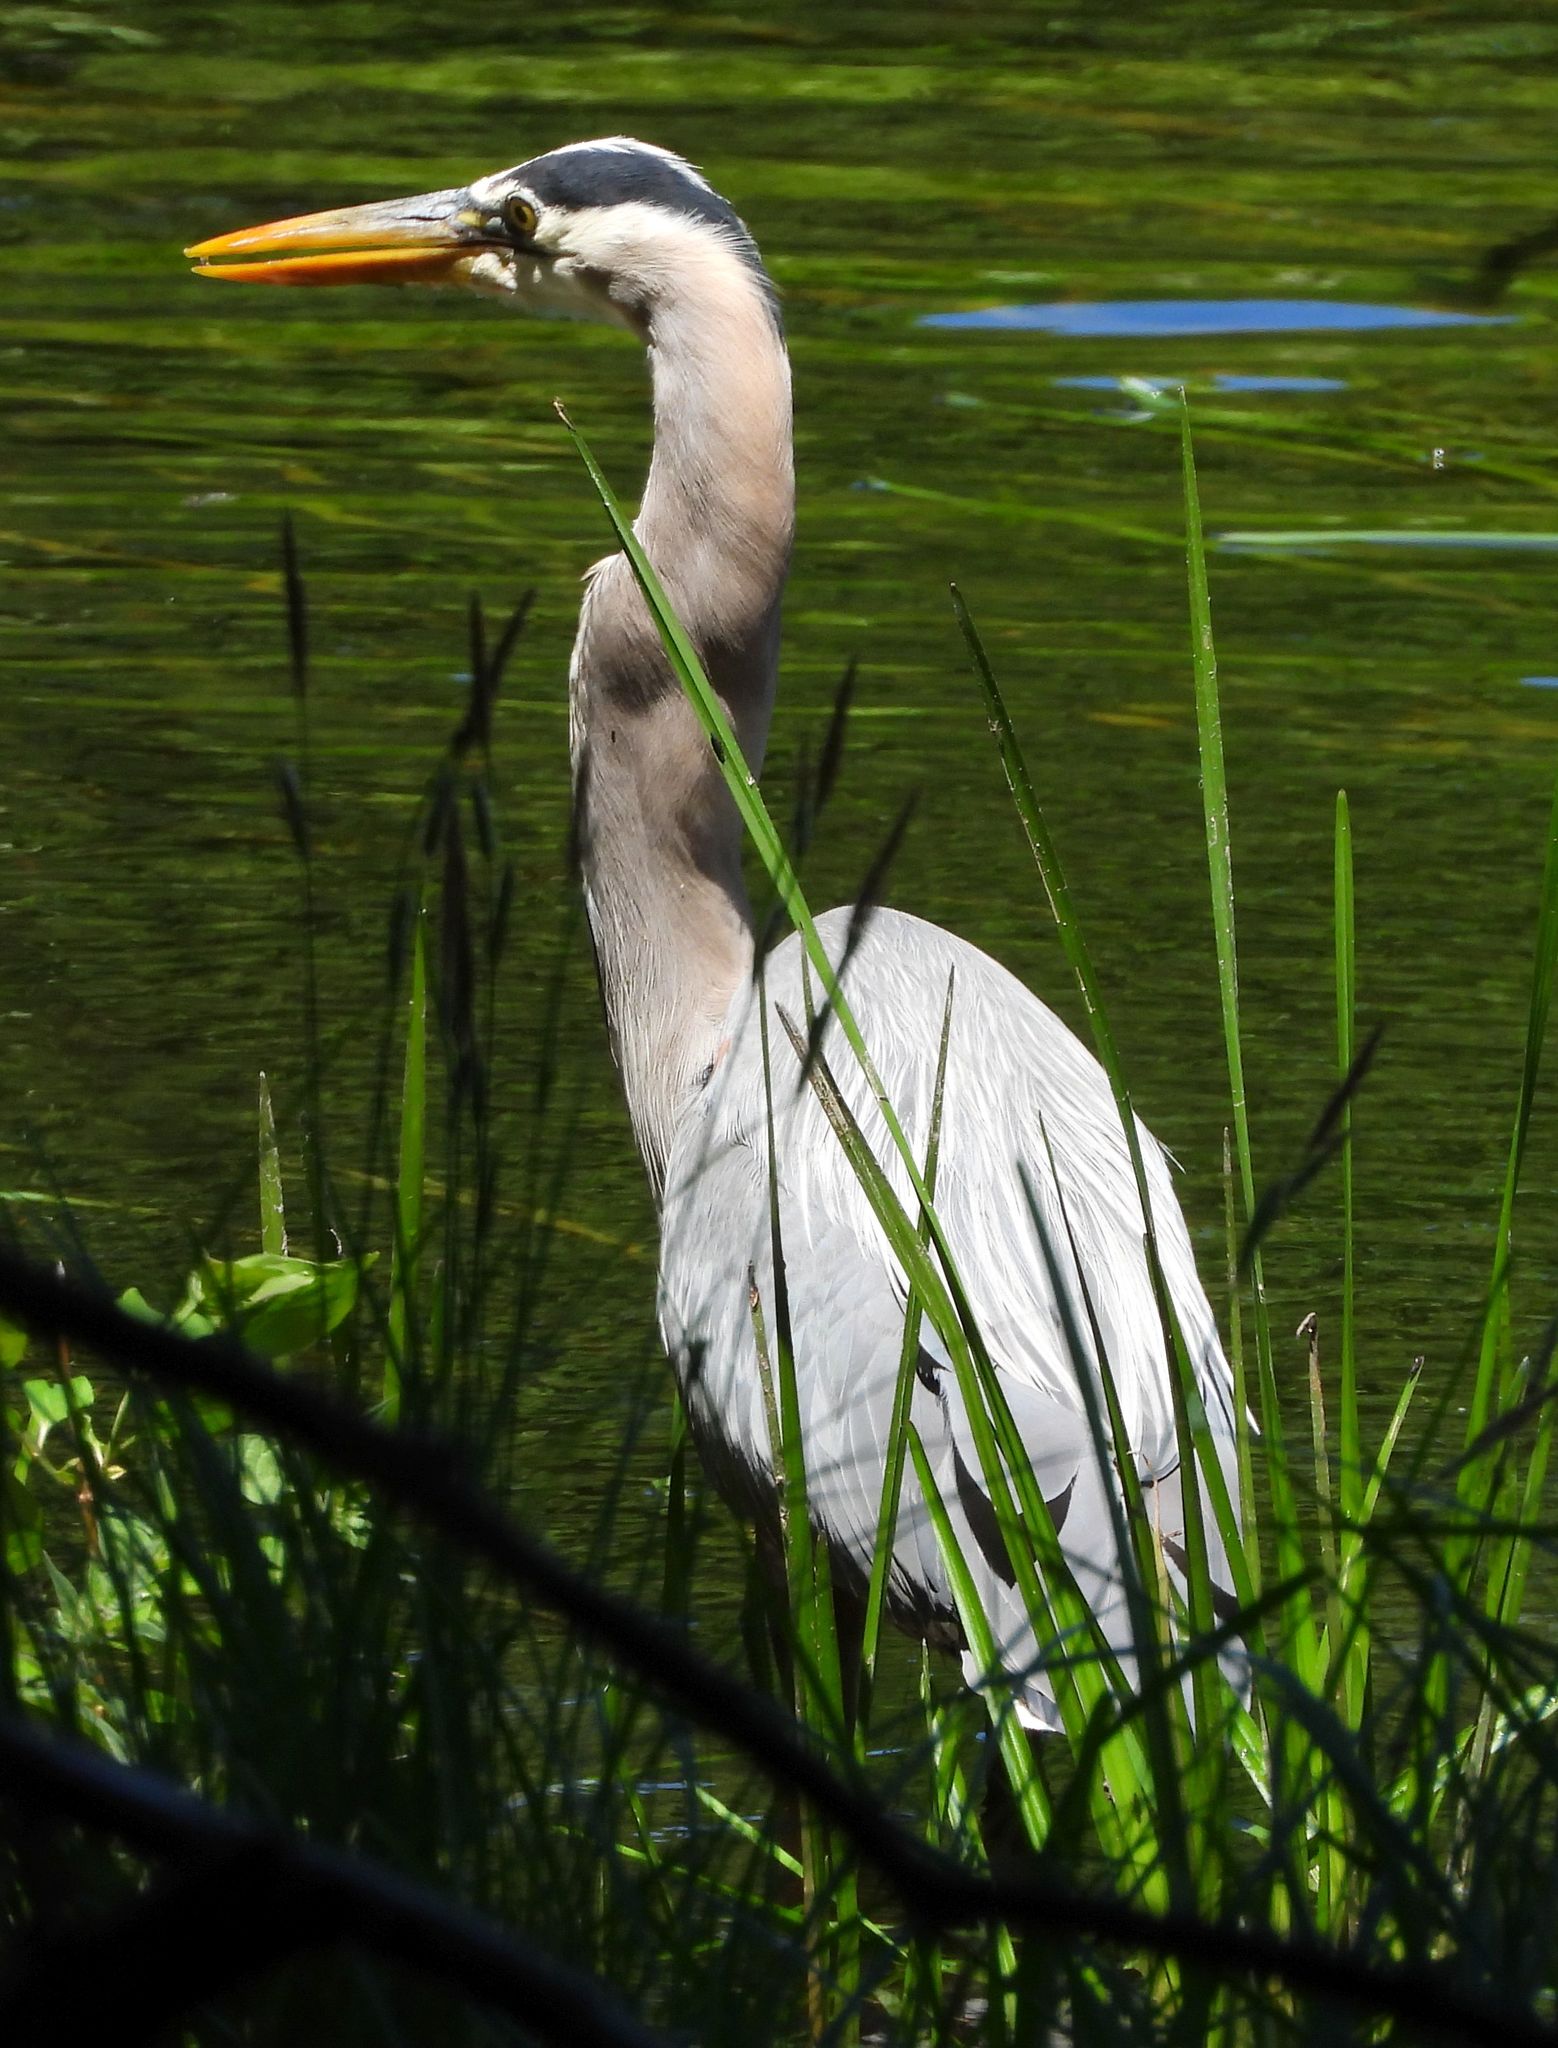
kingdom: Animalia
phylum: Chordata
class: Aves
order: Pelecaniformes
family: Ardeidae
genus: Ardea
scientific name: Ardea herodias
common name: Great blue heron
